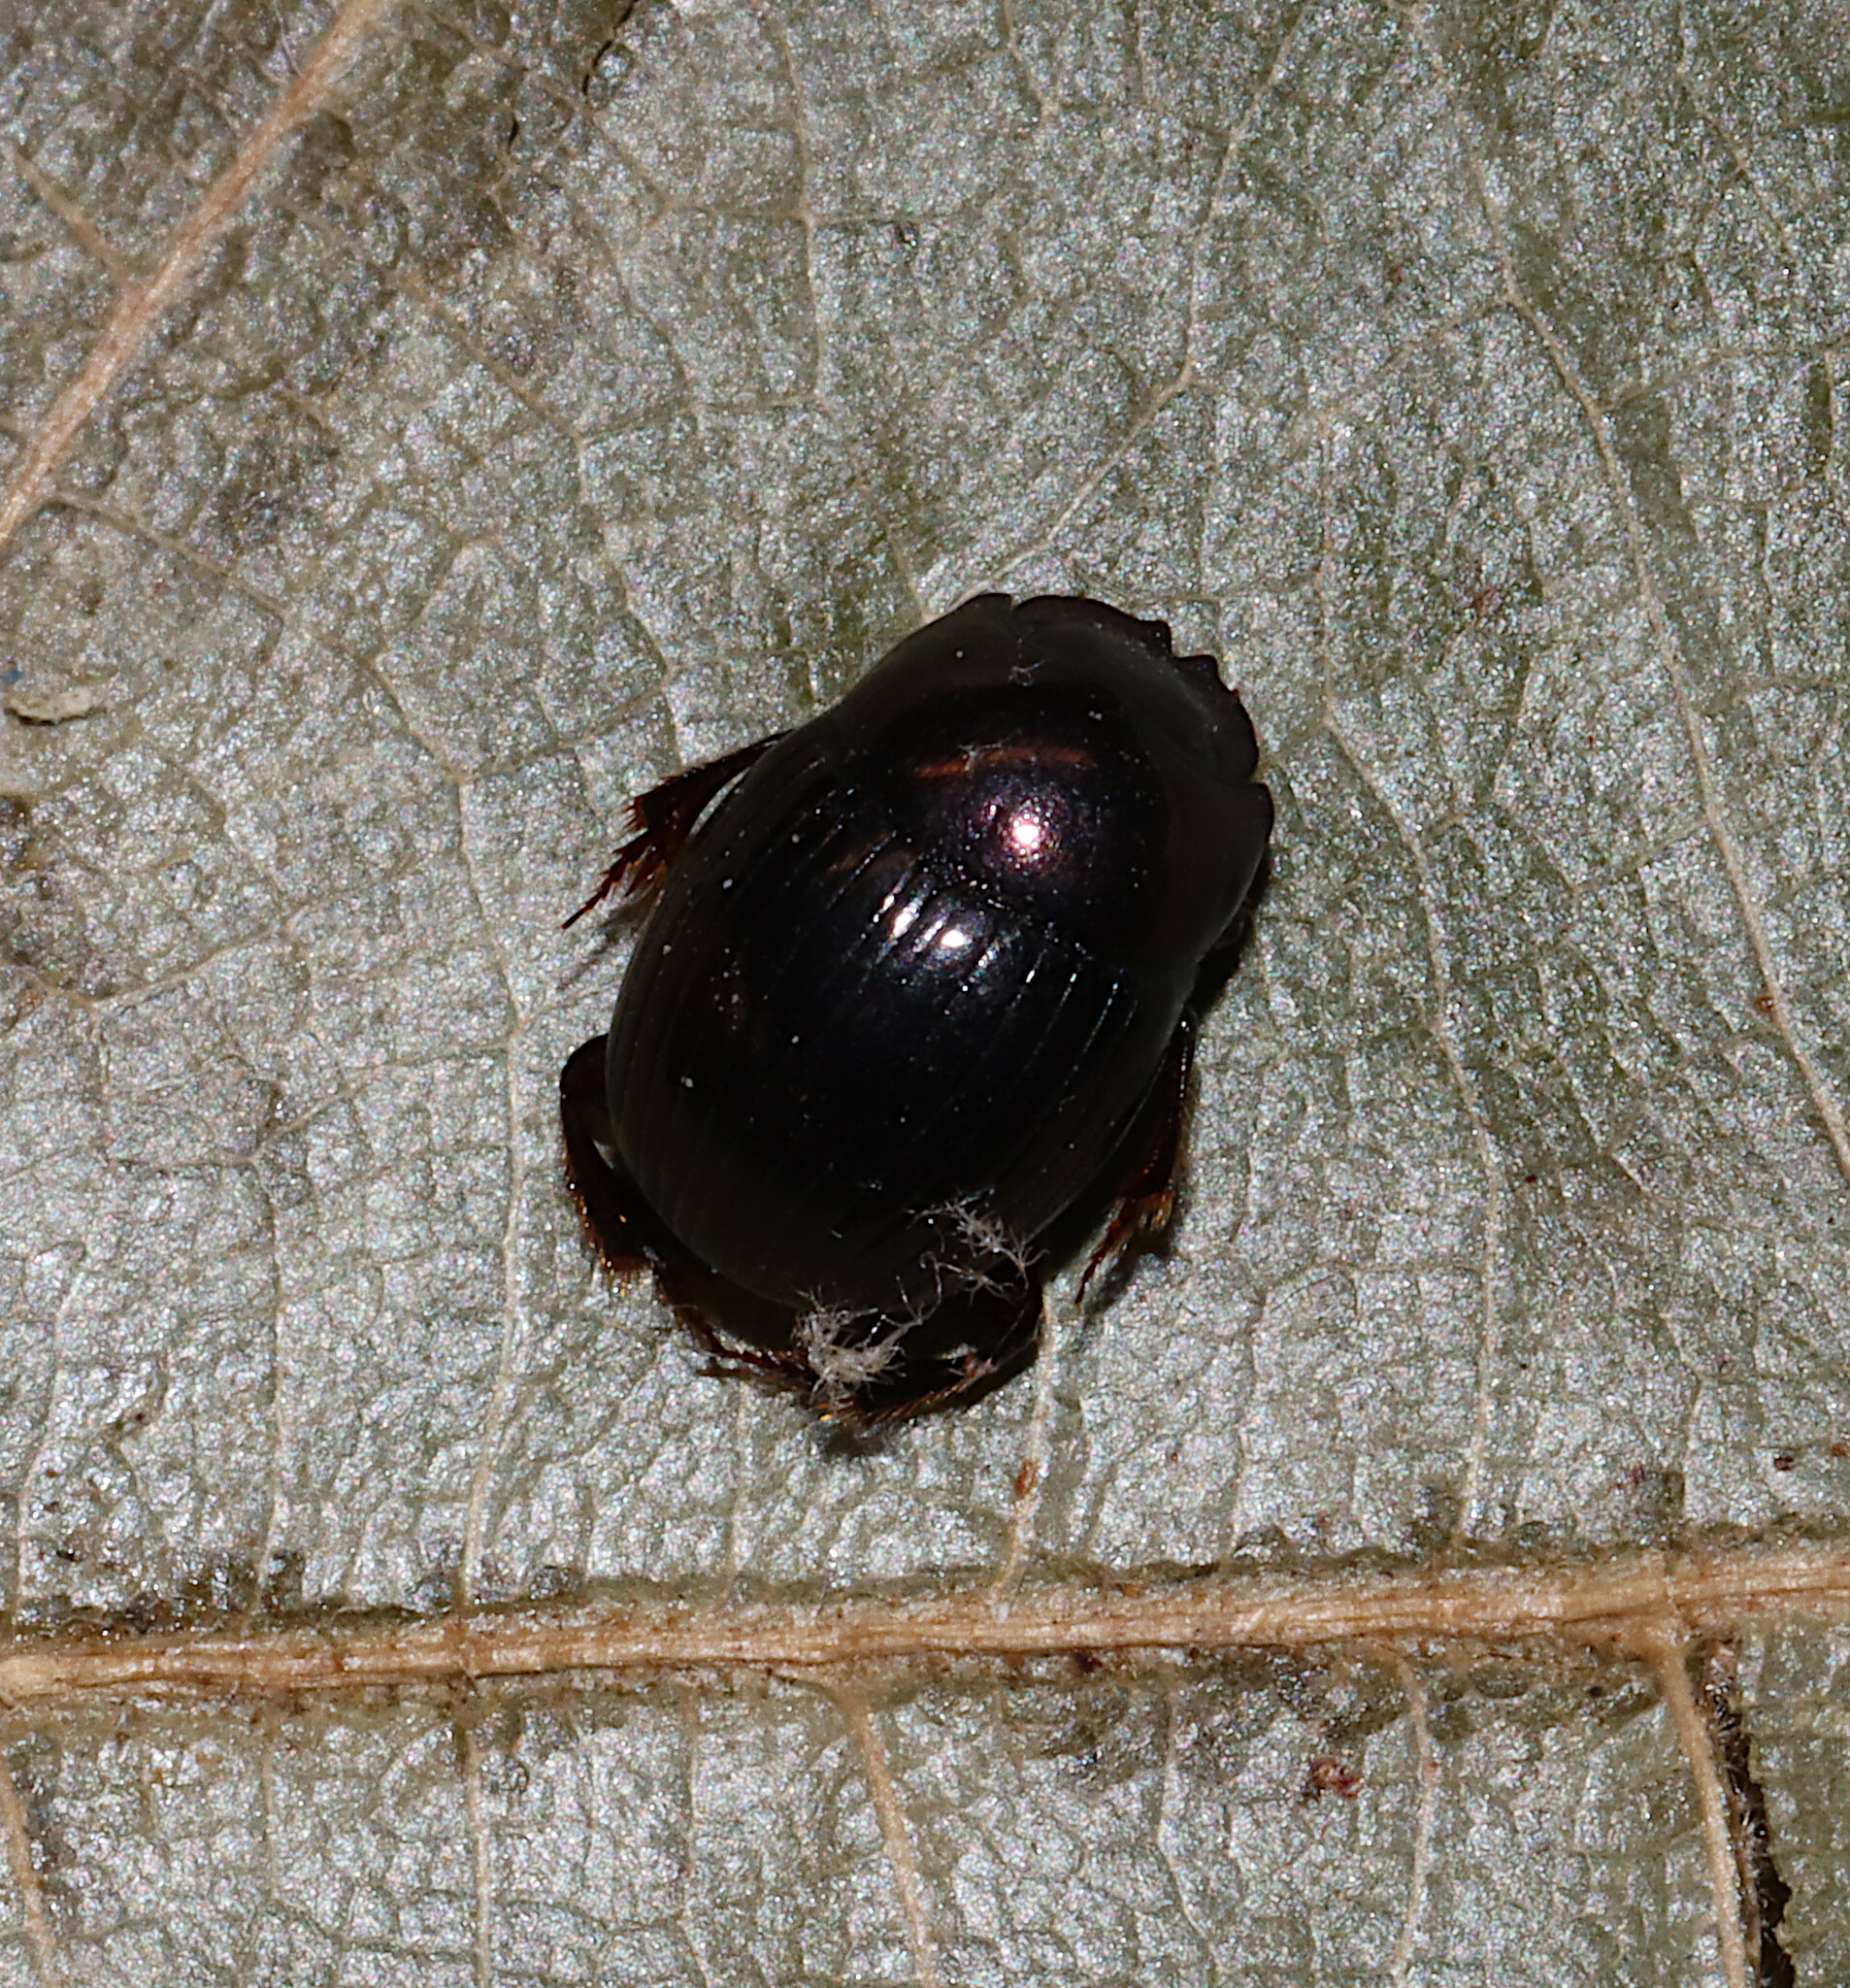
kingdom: Animalia
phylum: Arthropoda
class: Insecta
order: Coleoptera
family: Scarabaeidae
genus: Ateuchus
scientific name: Ateuchus histeroides
